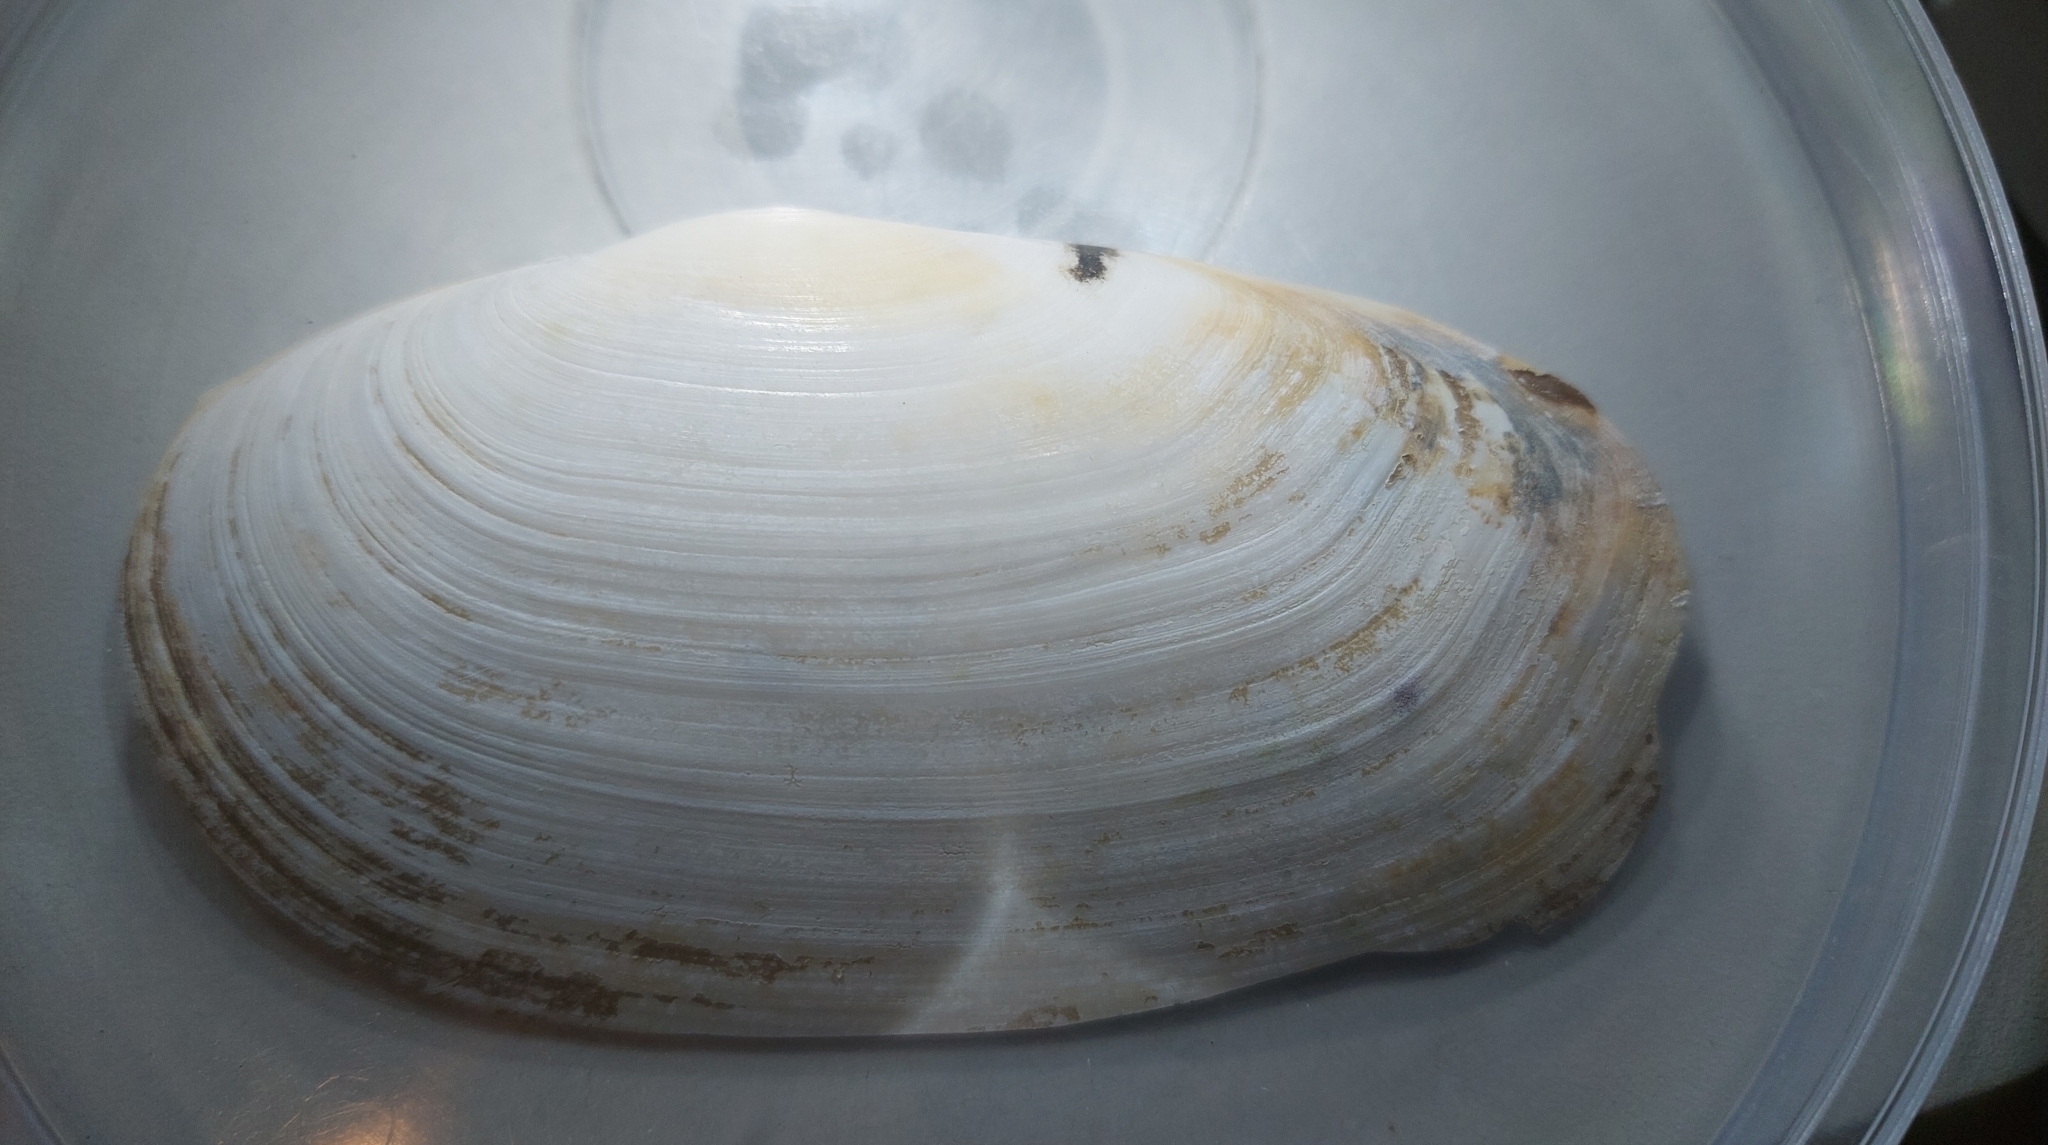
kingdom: Animalia
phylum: Mollusca
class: Bivalvia
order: Venerida
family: Mactridae
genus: Lutraria
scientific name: Lutraria lutraria
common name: Common otter shell
